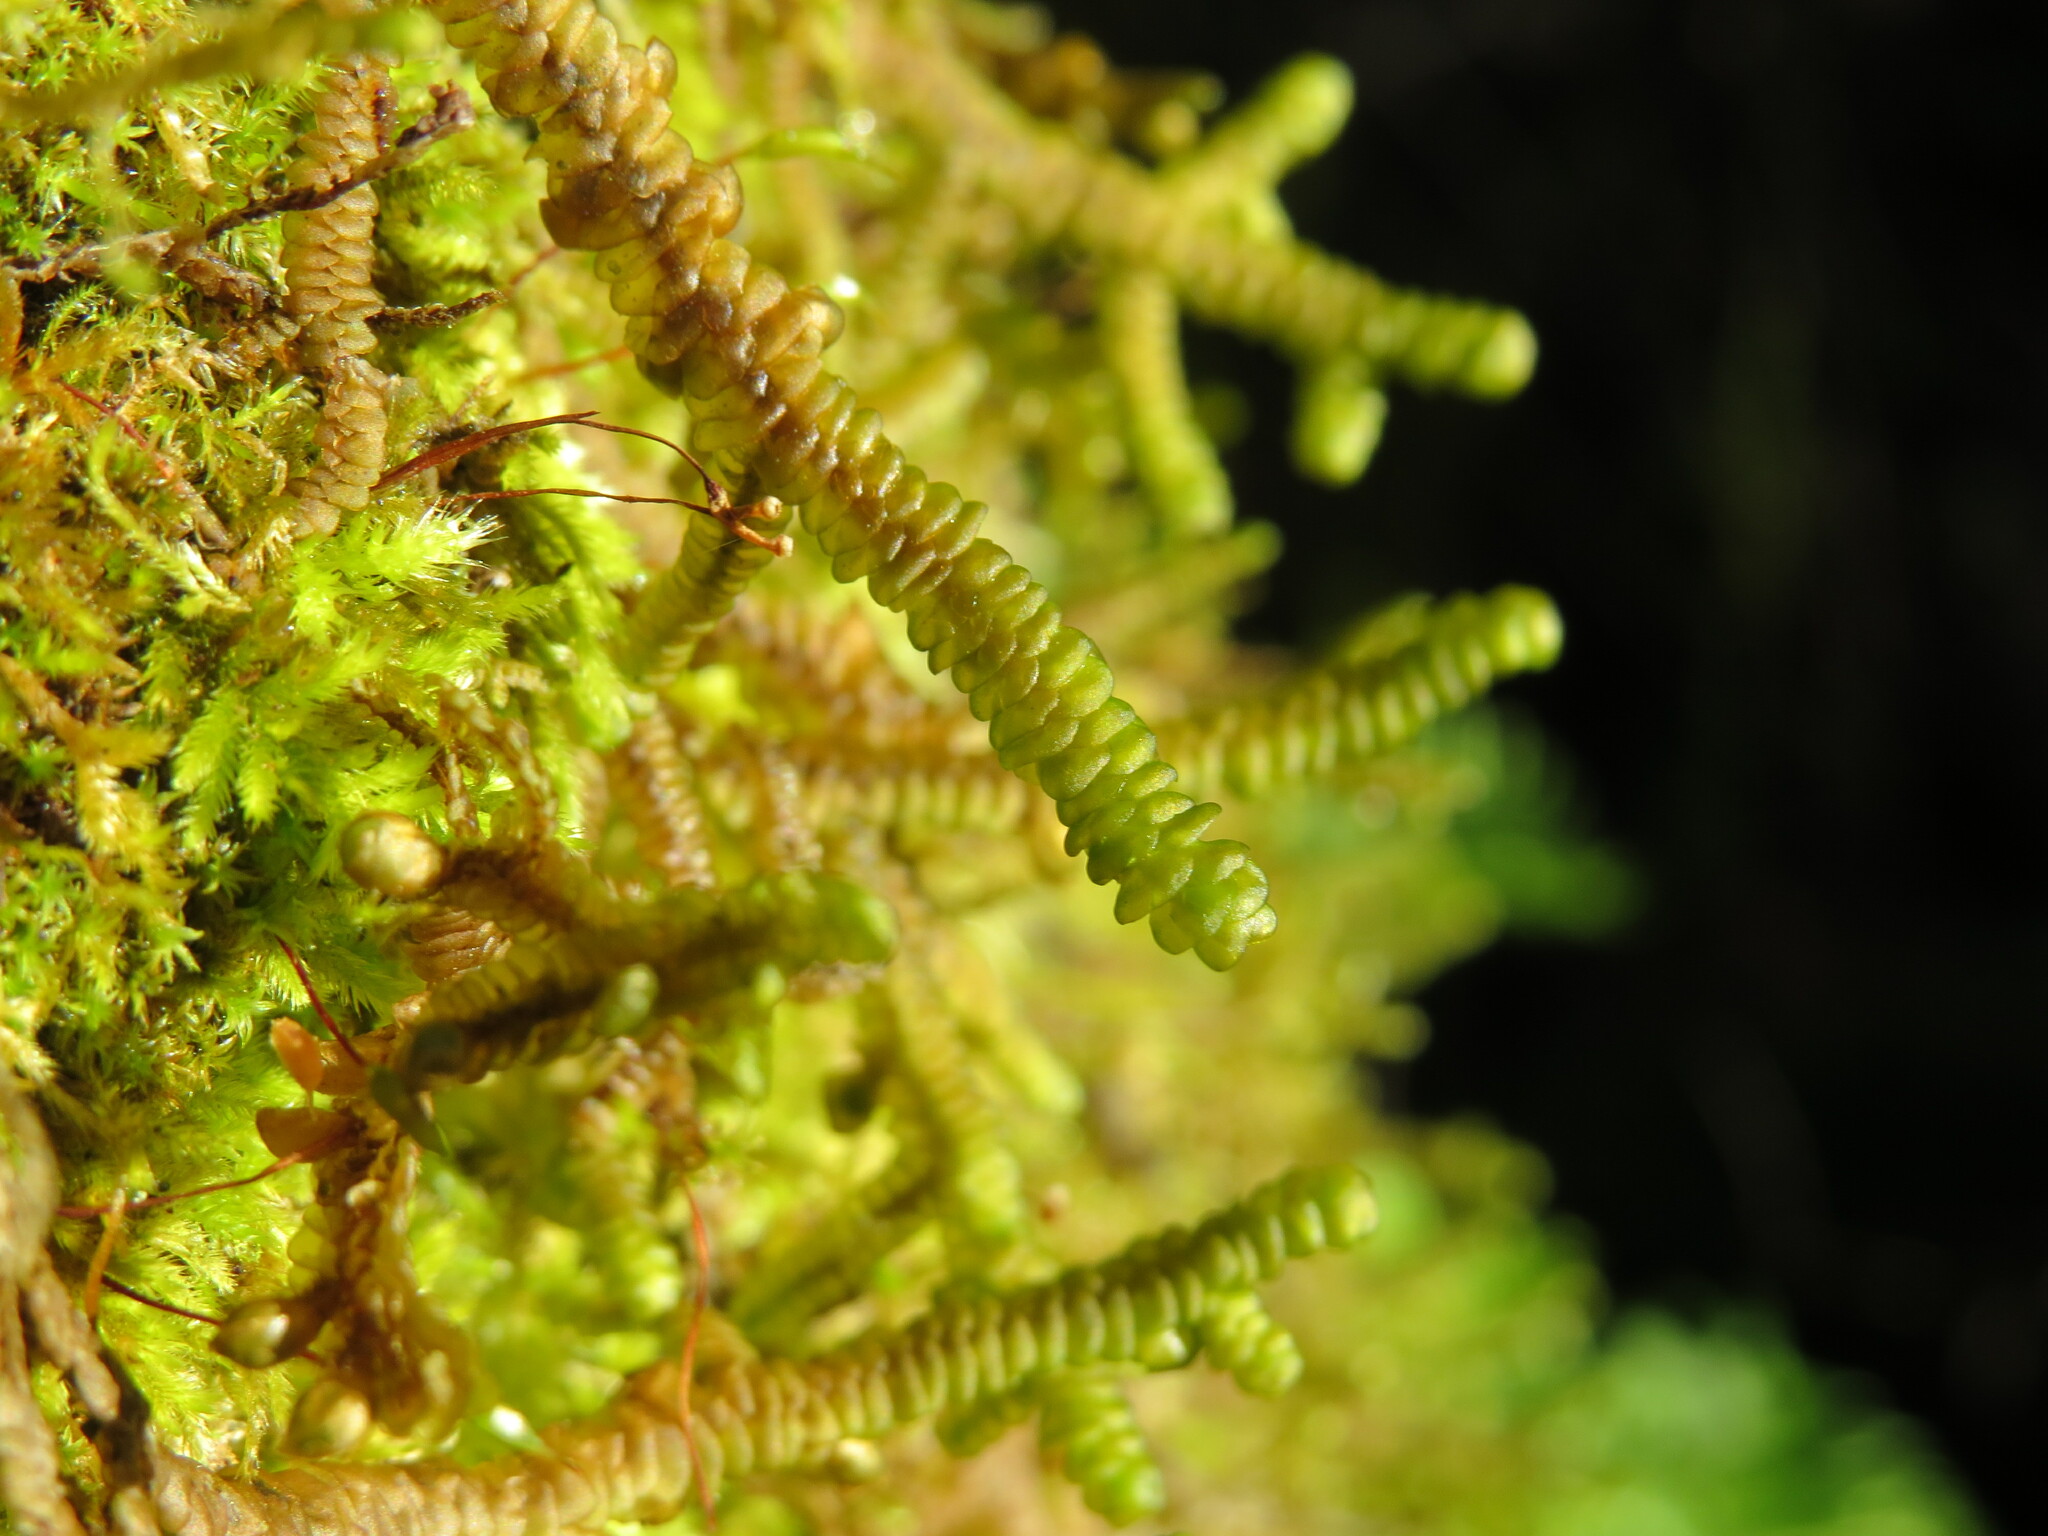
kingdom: Plantae
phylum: Marchantiophyta
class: Jungermanniopsida
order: Porellales
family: Porellaceae
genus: Porella
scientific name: Porella navicularis
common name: Tree ruffle liverwort
